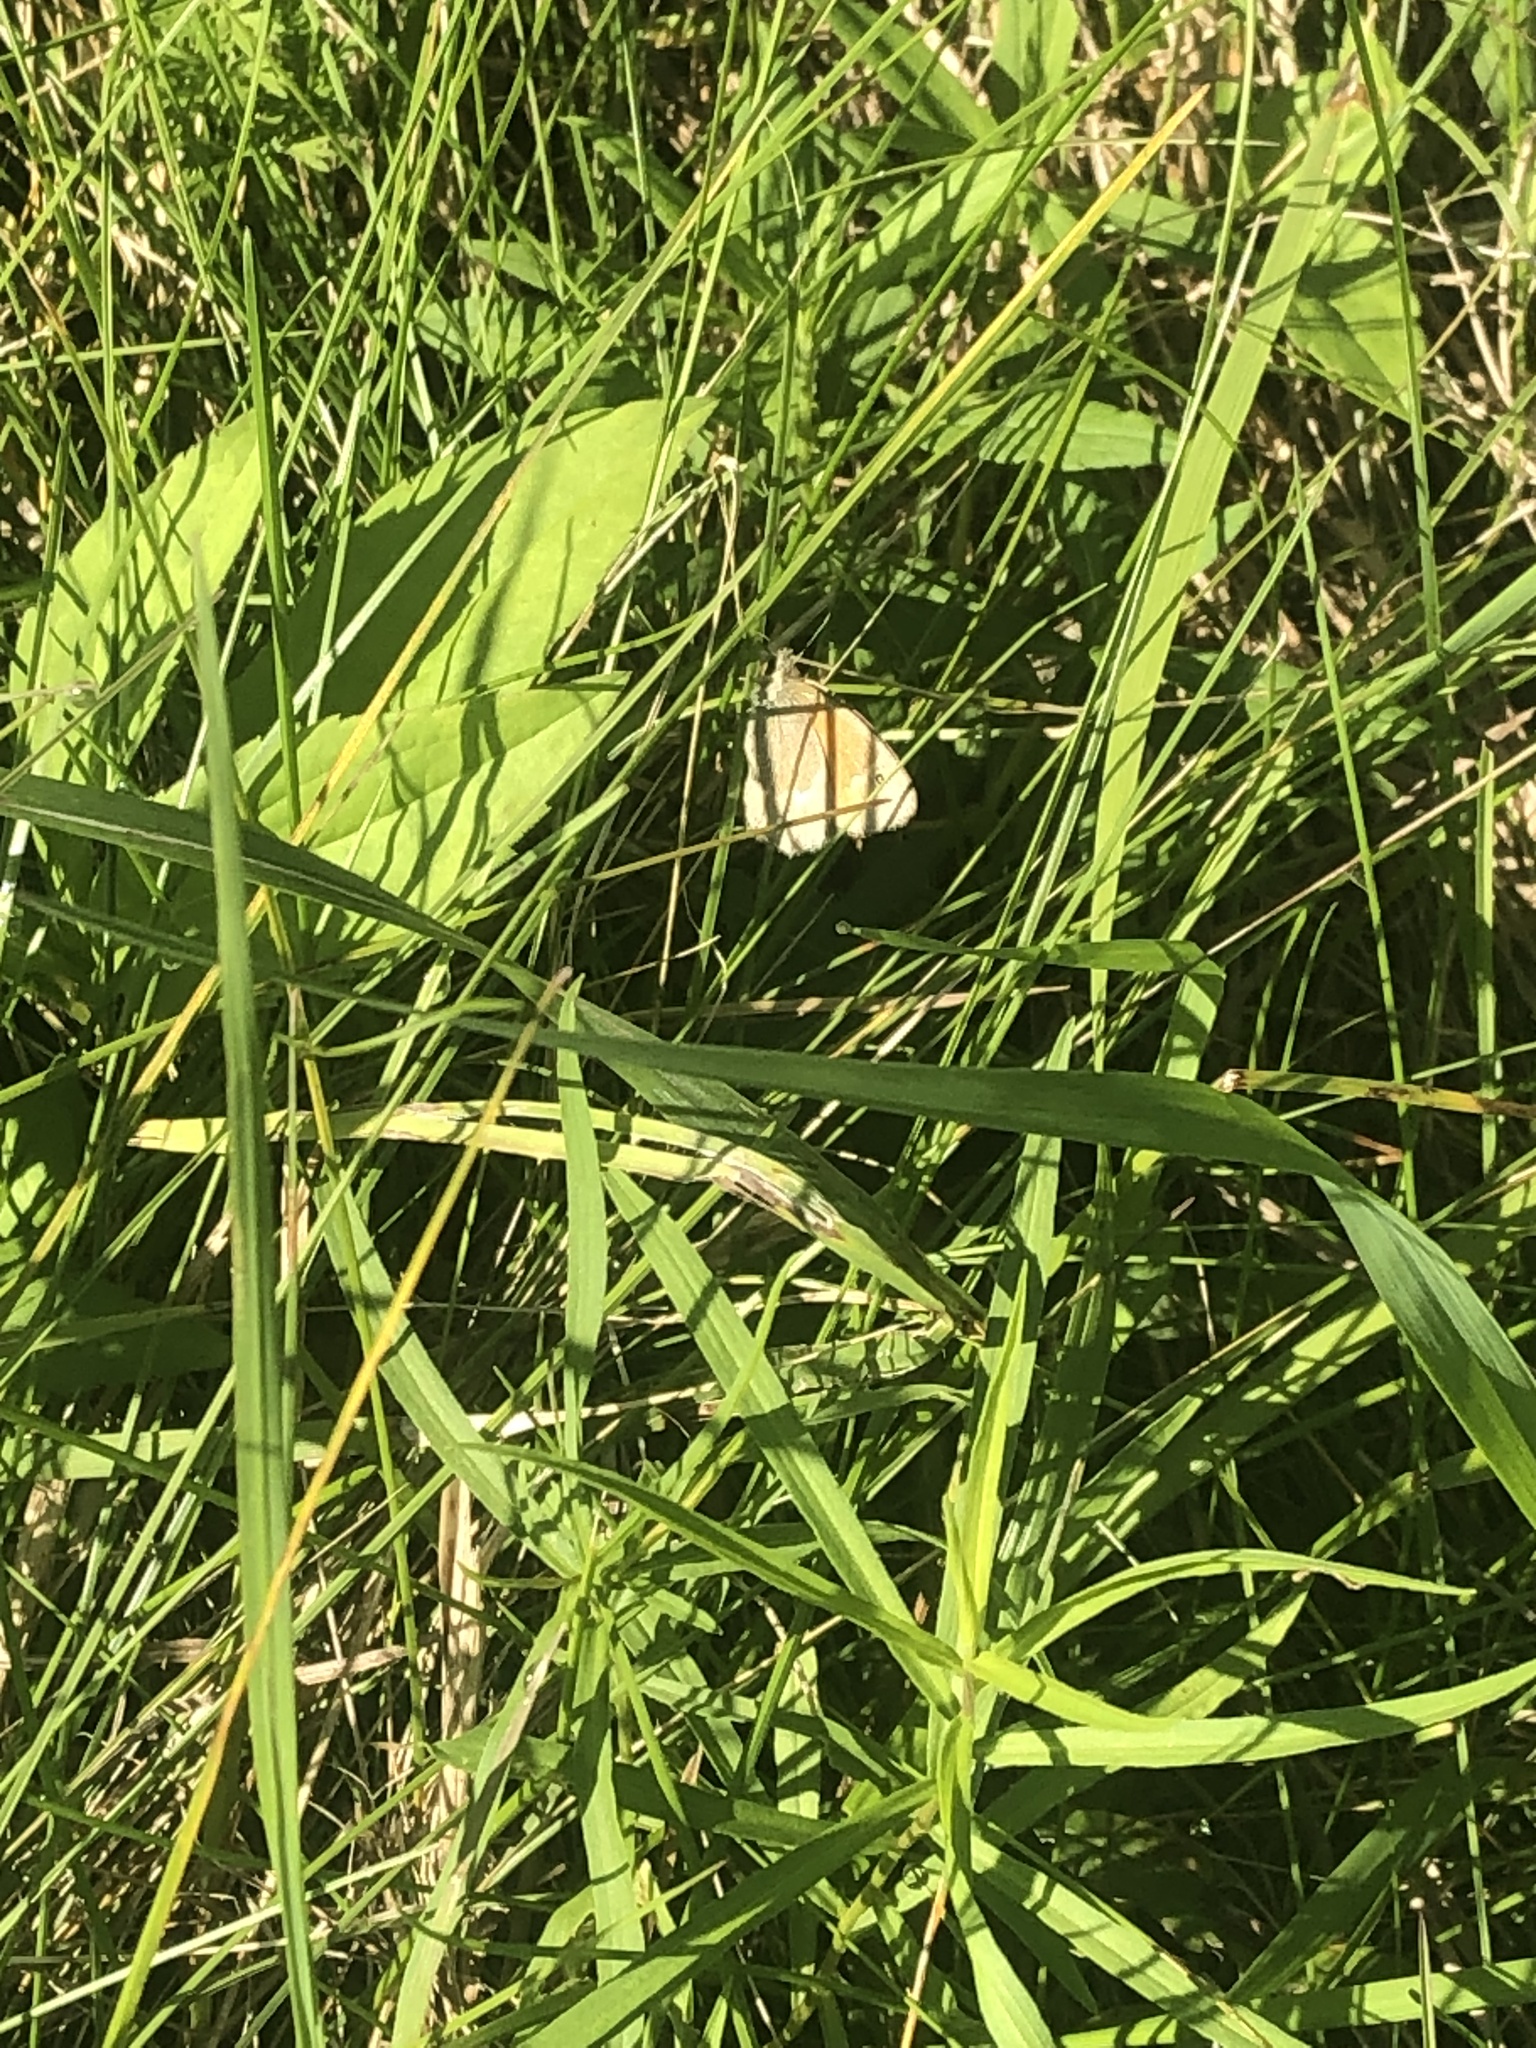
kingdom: Animalia
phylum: Arthropoda
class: Insecta
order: Lepidoptera
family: Nymphalidae
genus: Coenonympha
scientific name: Coenonympha california
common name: Common ringlet
